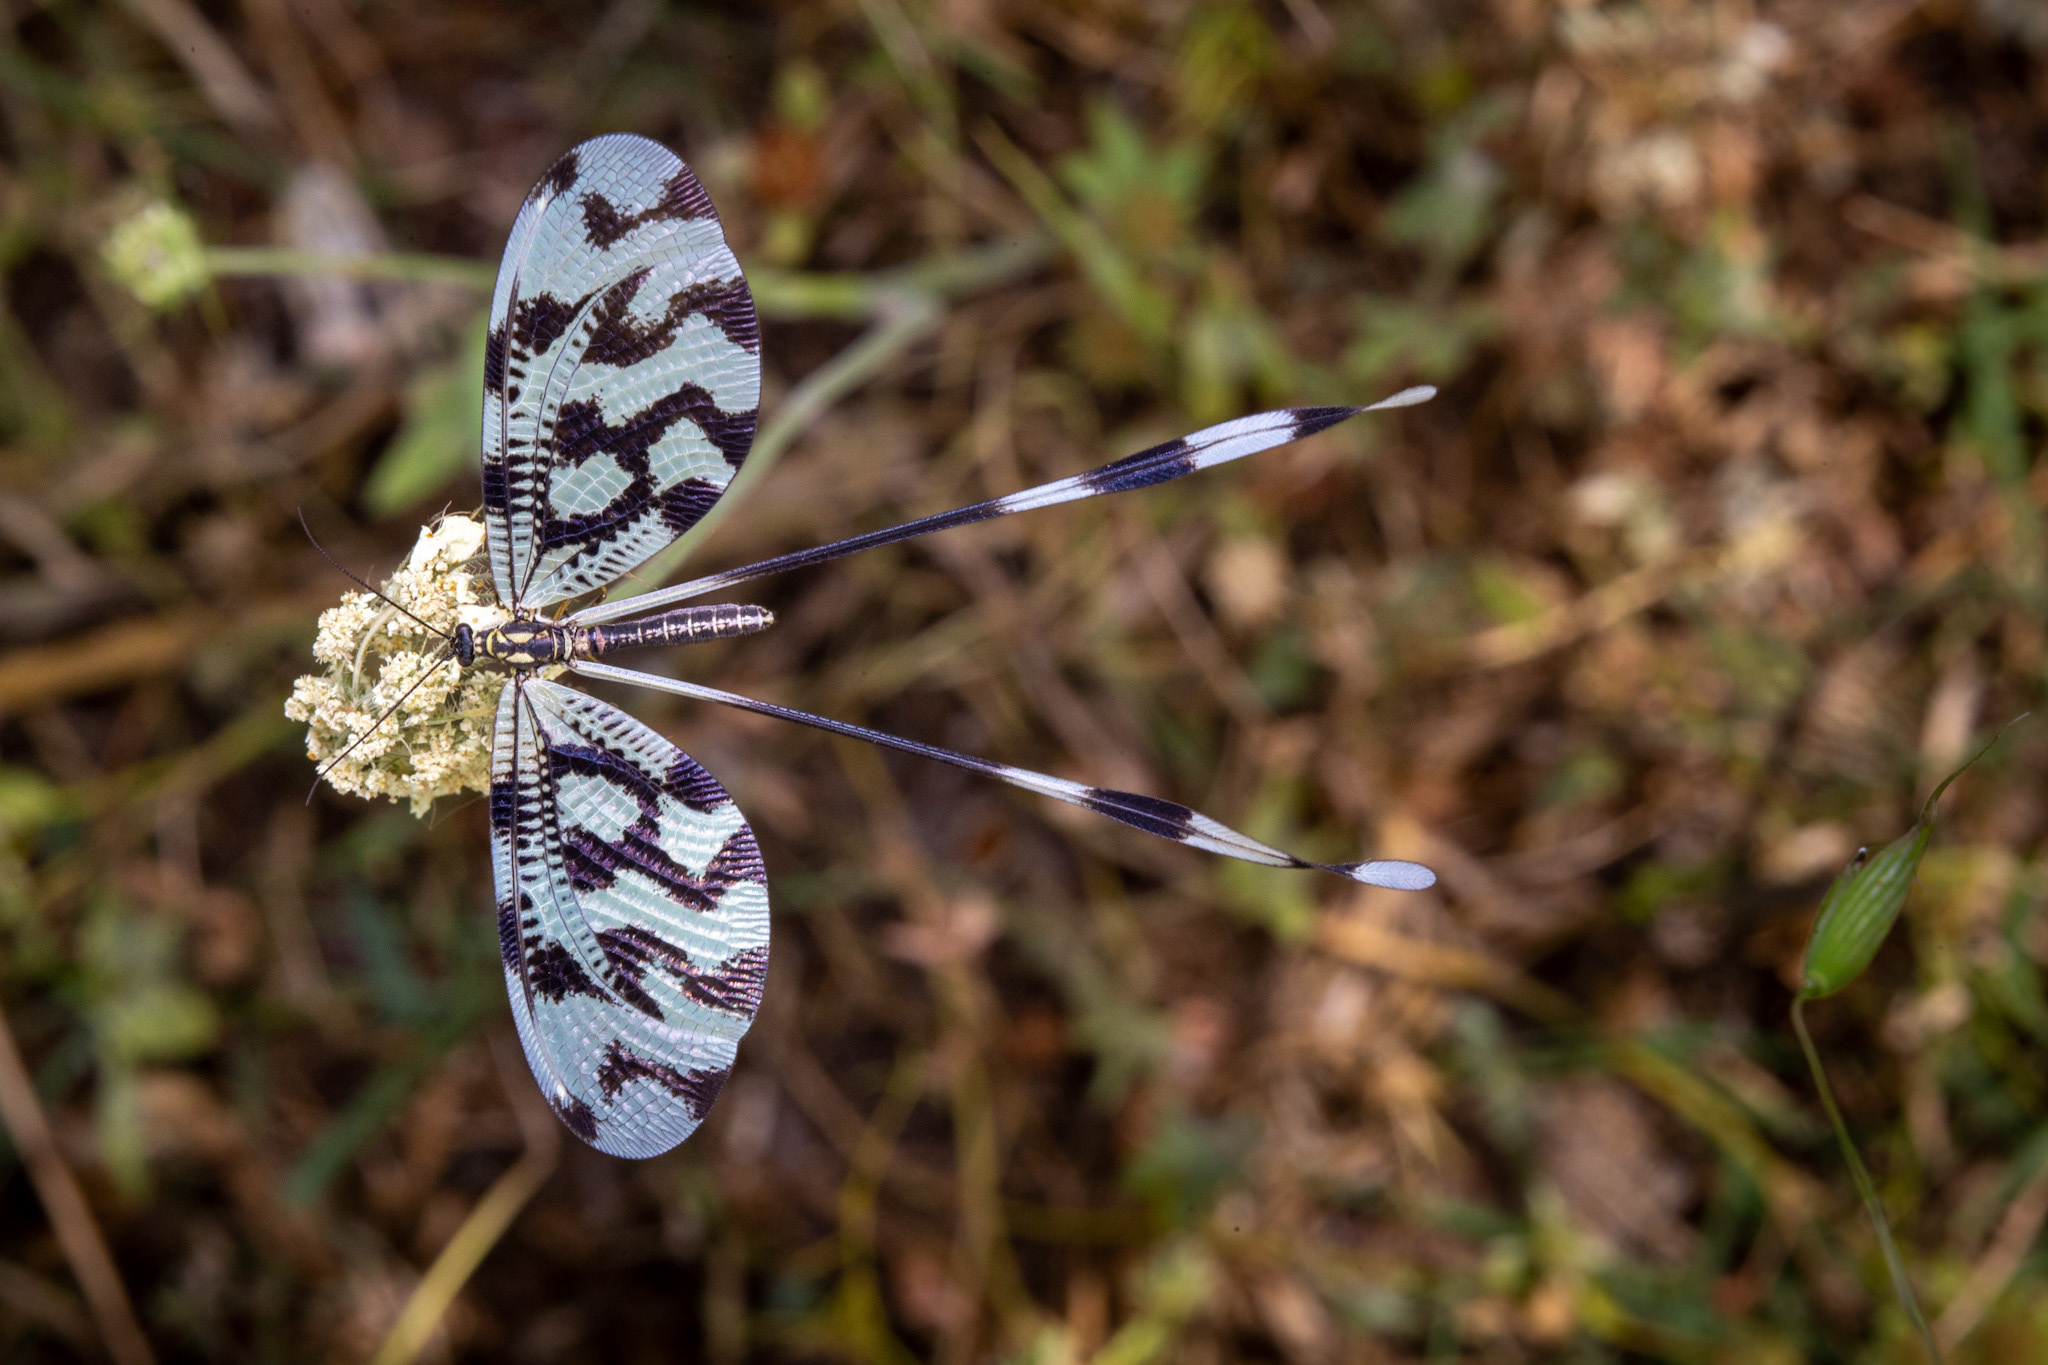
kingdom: Animalia
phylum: Arthropoda
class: Insecta
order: Neuroptera
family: Nemopteridae
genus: Nemoptera
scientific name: Nemoptera sinuata
